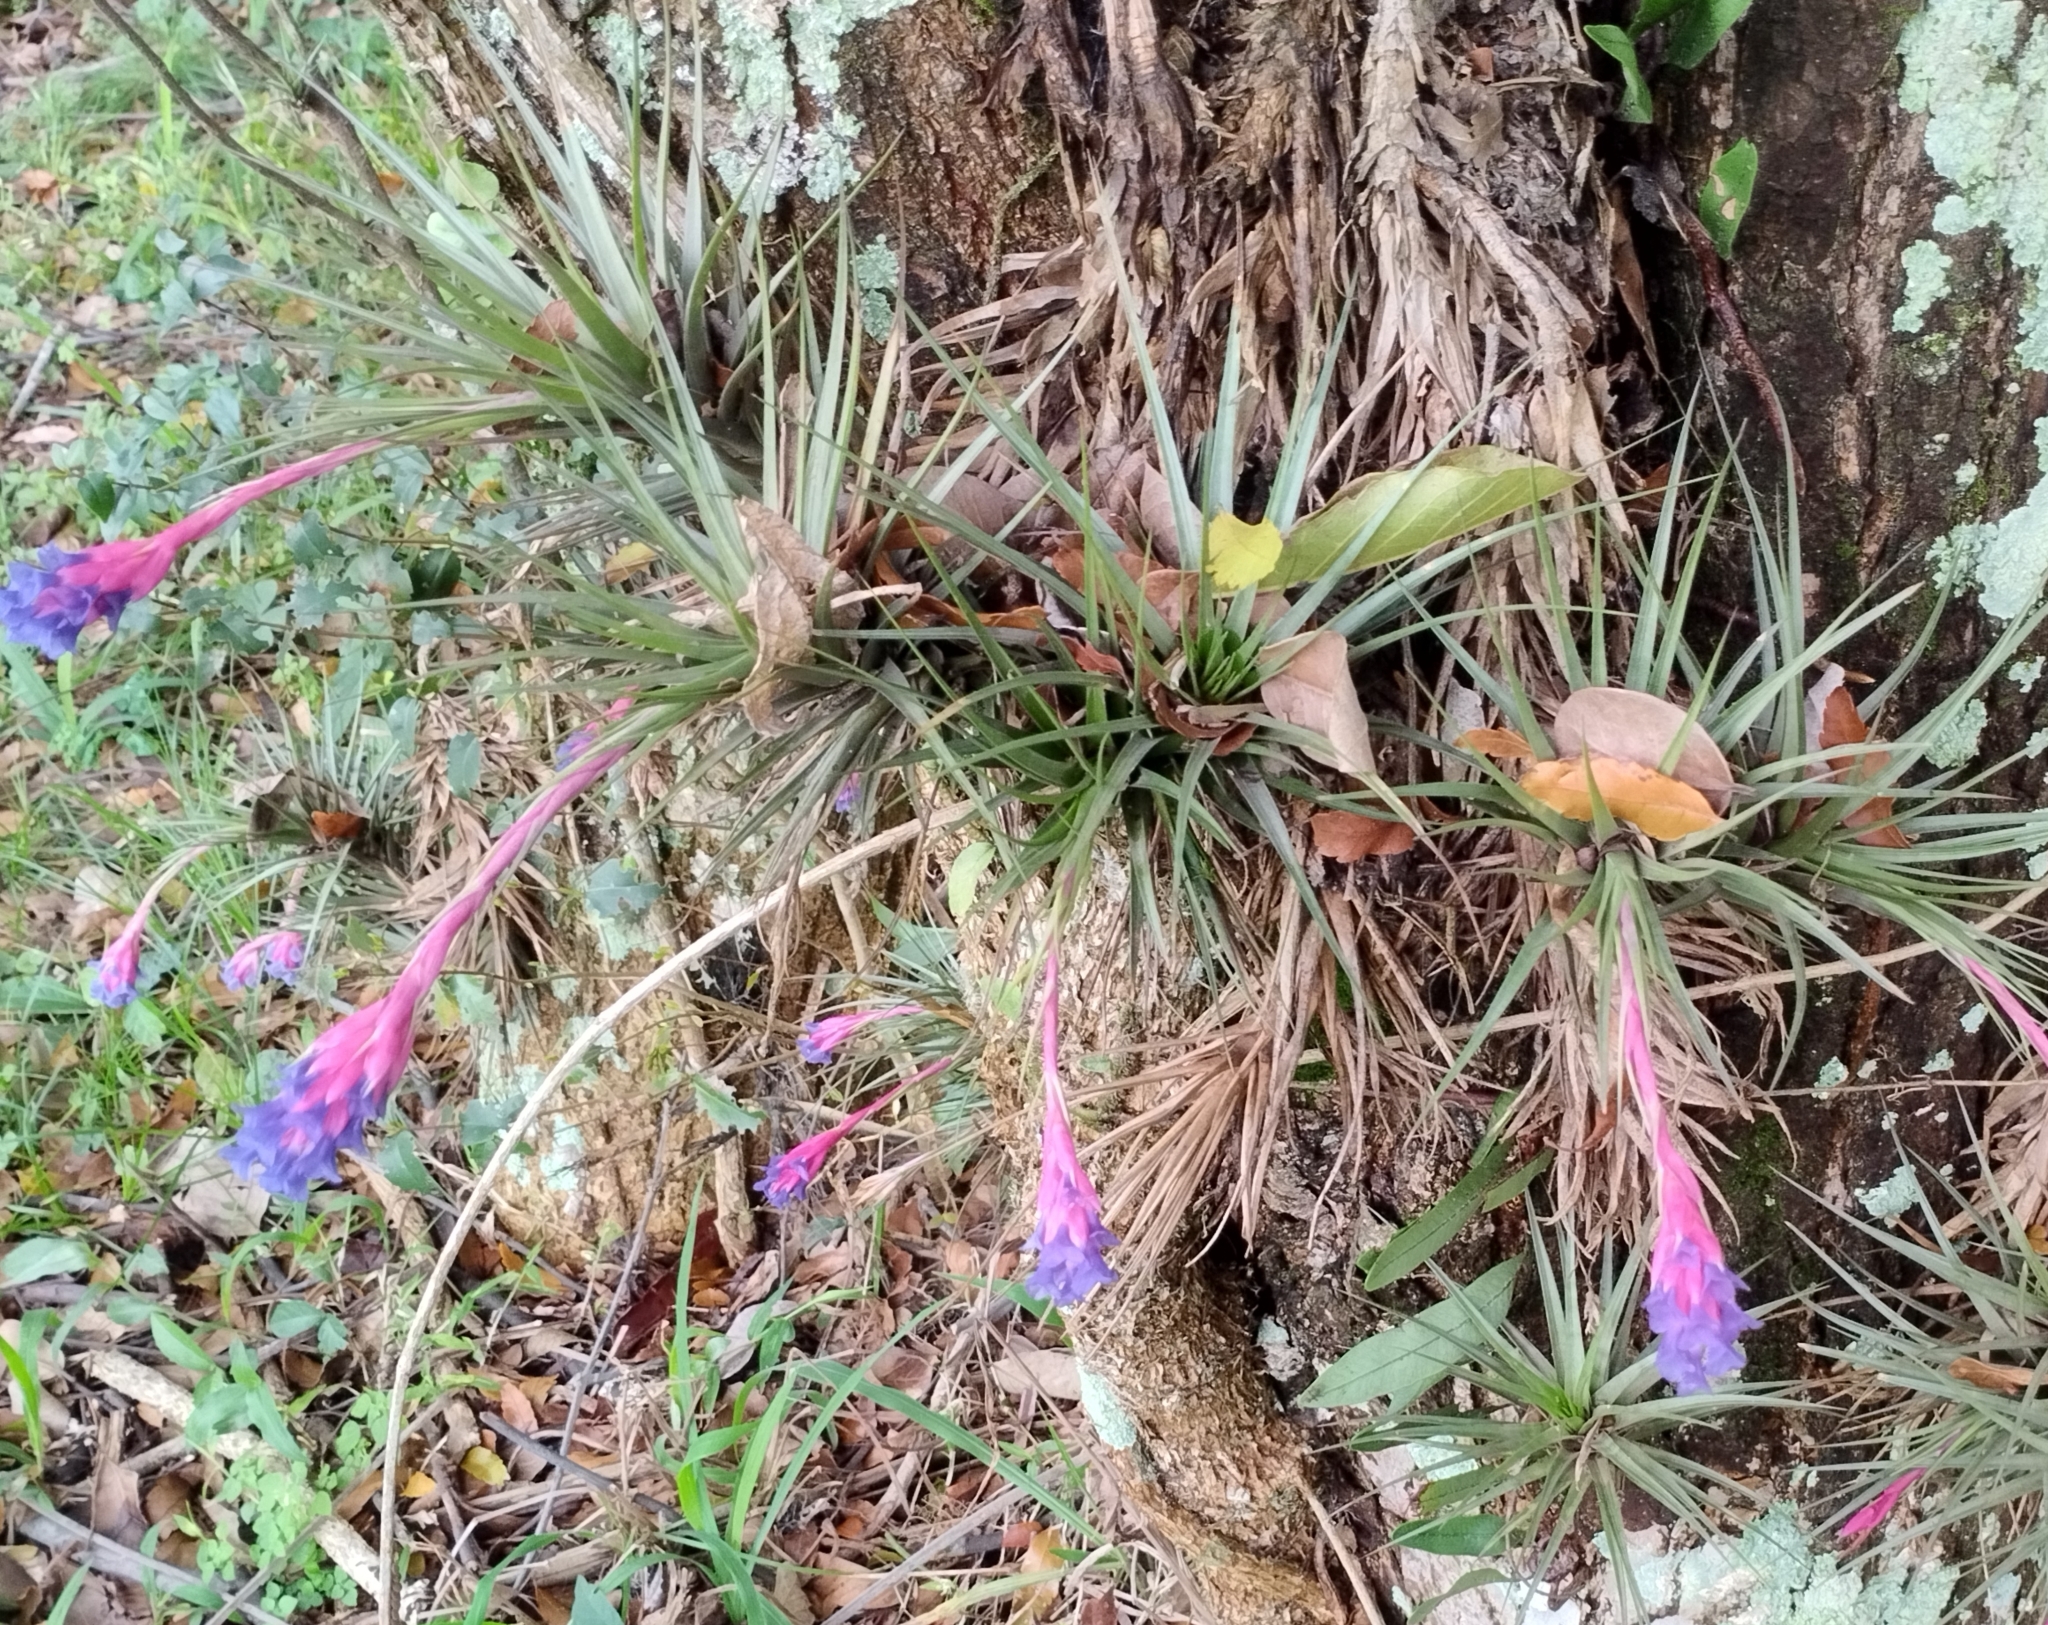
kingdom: Plantae
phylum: Tracheophyta
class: Liliopsida
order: Poales
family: Bromeliaceae
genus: Tillandsia
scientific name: Tillandsia aeranthos
